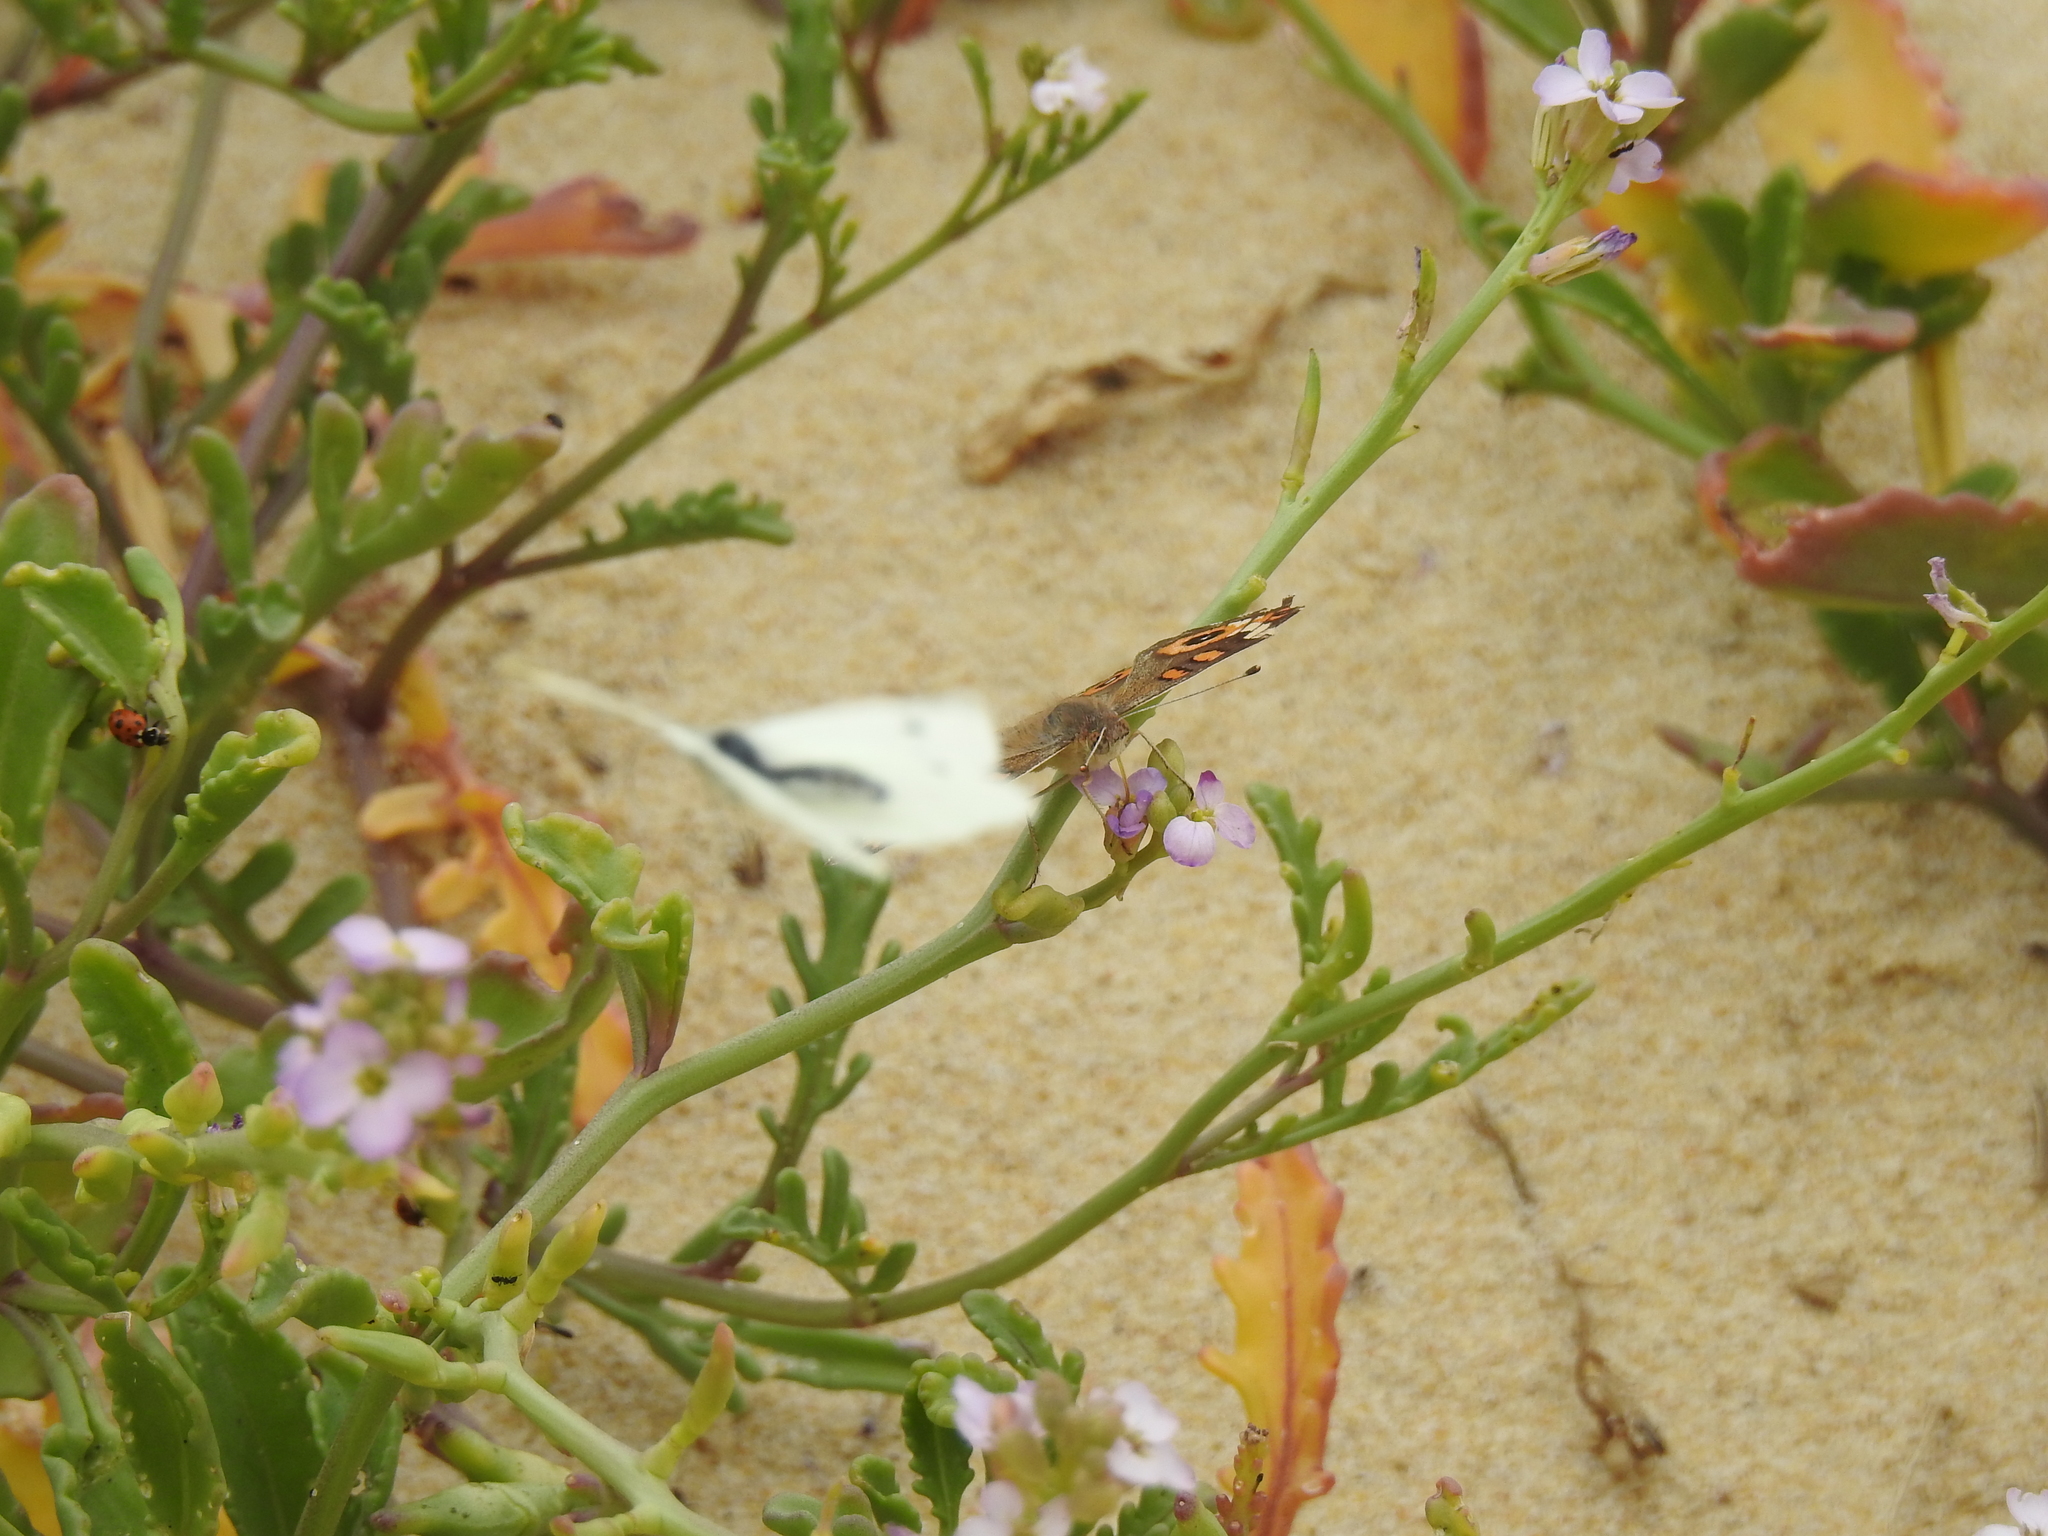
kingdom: Animalia
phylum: Arthropoda
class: Insecta
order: Lepidoptera
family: Nymphalidae
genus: Junonia
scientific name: Junonia villida
